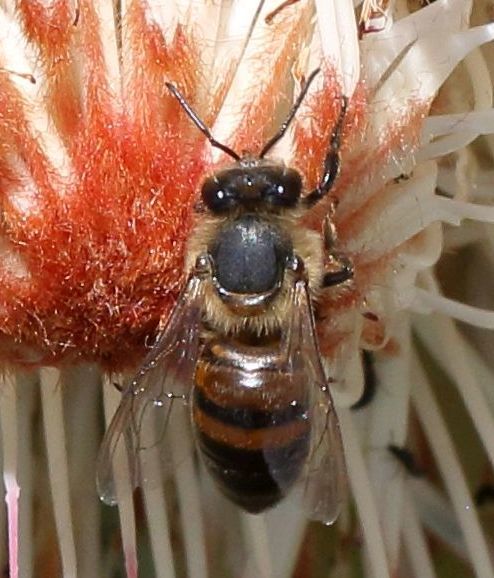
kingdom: Animalia
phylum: Arthropoda
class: Insecta
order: Hymenoptera
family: Apidae
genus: Apis
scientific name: Apis mellifera
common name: Honey bee
